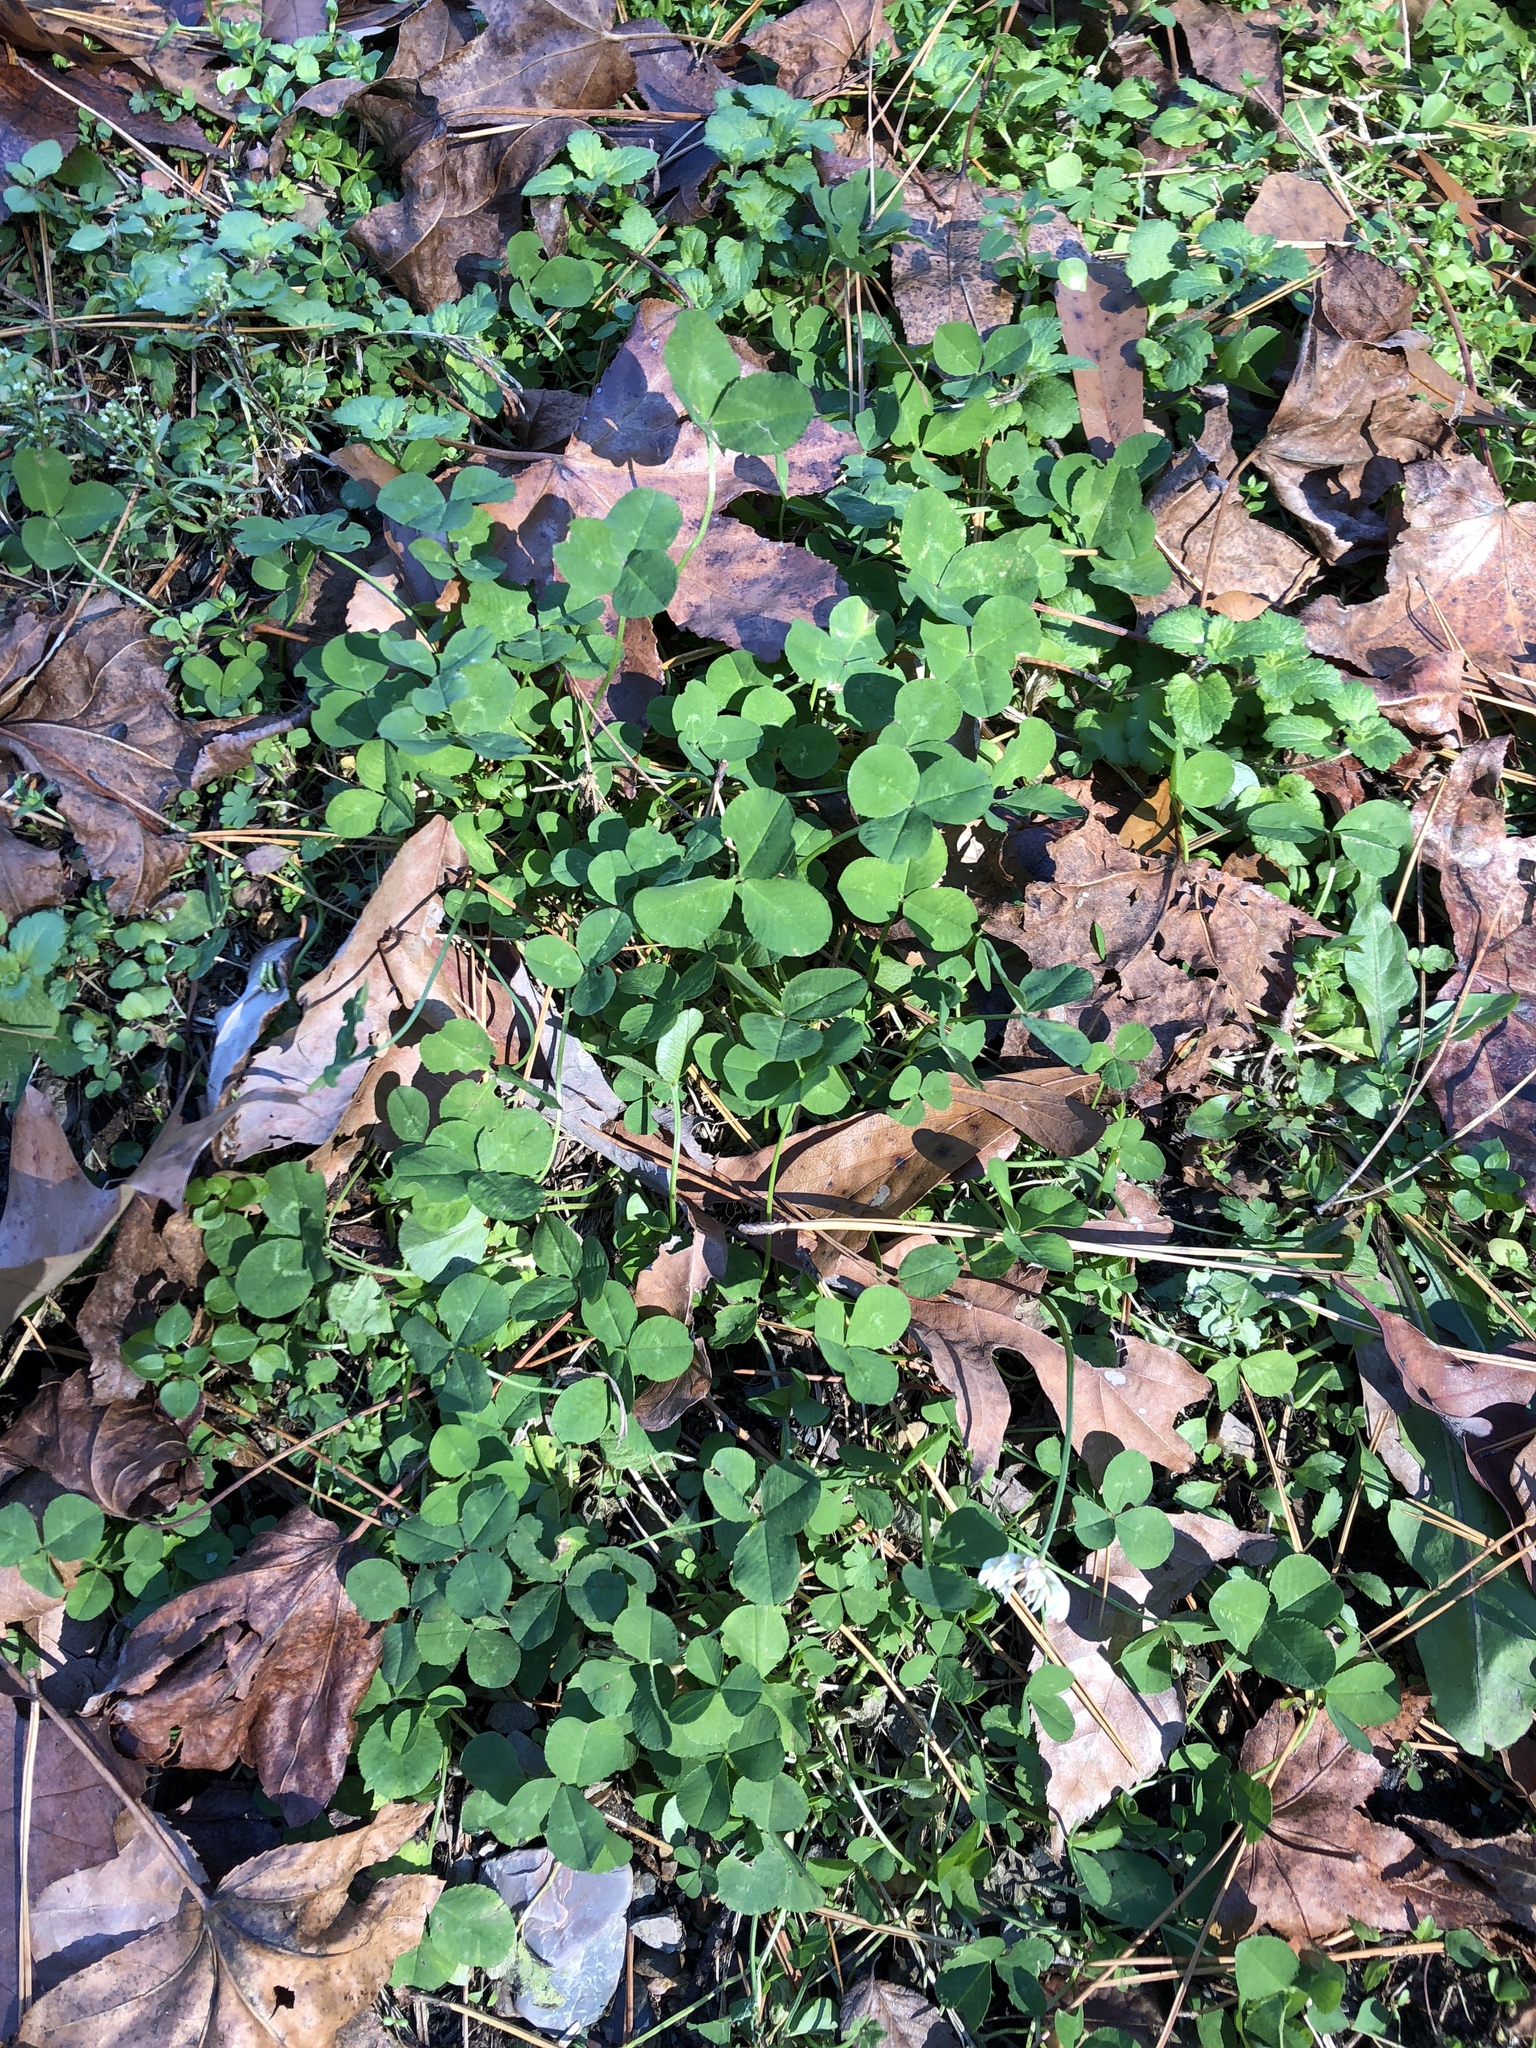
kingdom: Plantae
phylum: Tracheophyta
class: Magnoliopsida
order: Fabales
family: Fabaceae
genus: Trifolium
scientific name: Trifolium repens
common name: White clover
